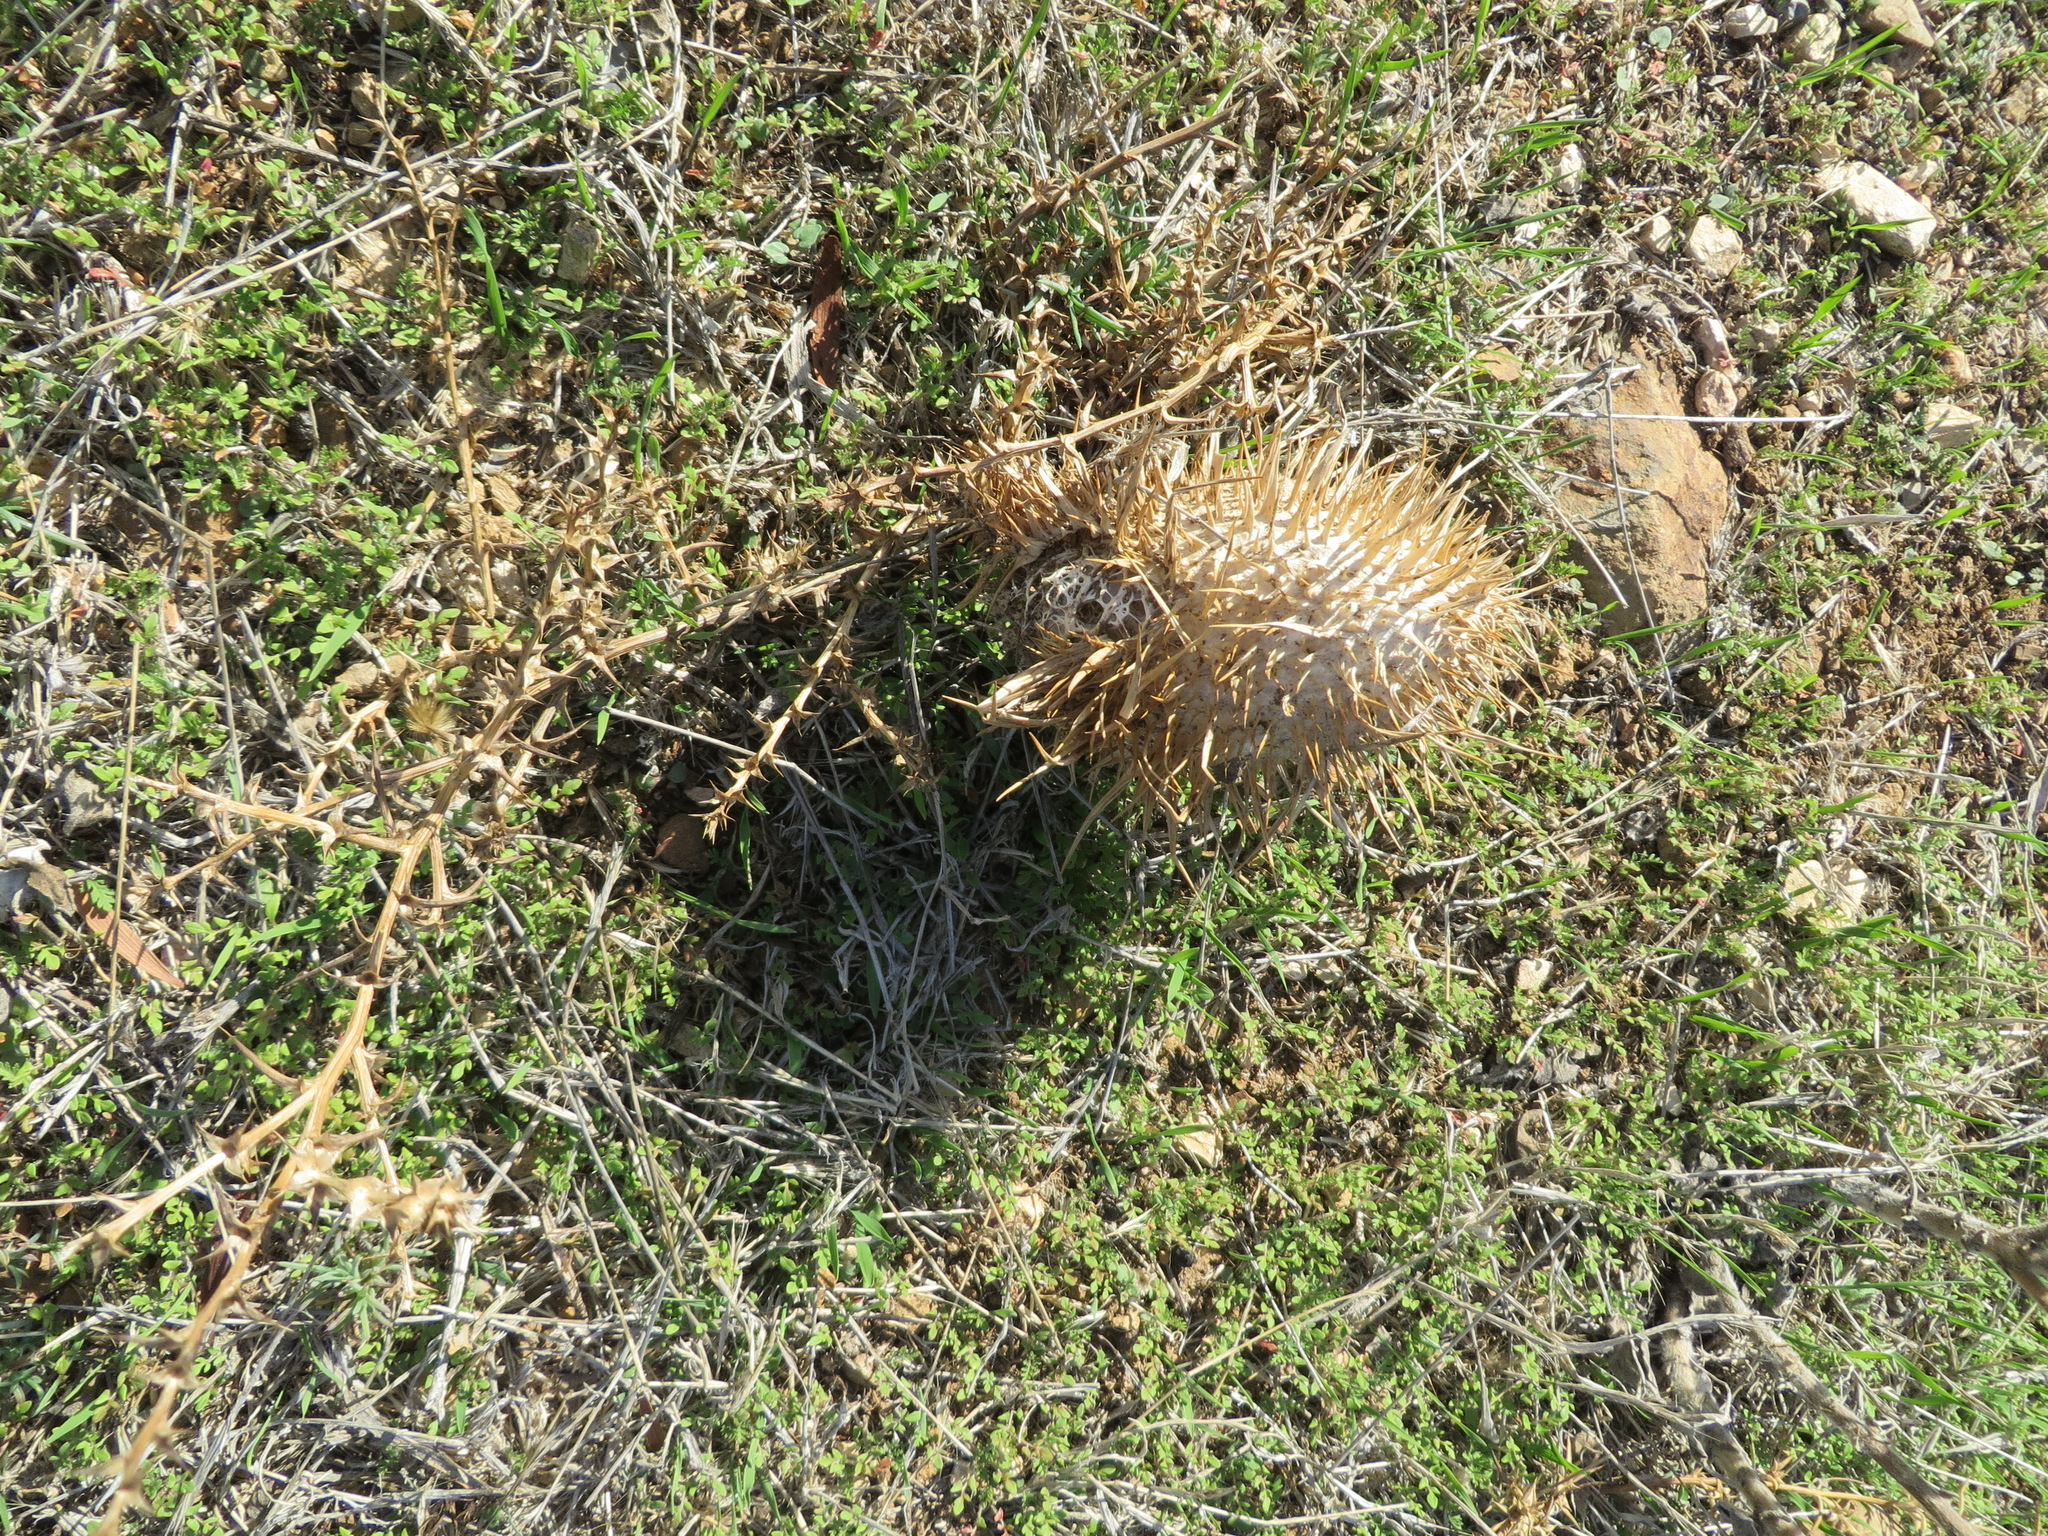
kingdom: Plantae
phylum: Tracheophyta
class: Magnoliopsida
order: Cucurbitales
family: Cucurbitaceae
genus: Marah
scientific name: Marah macrocarpa
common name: Cucamonga manroot
